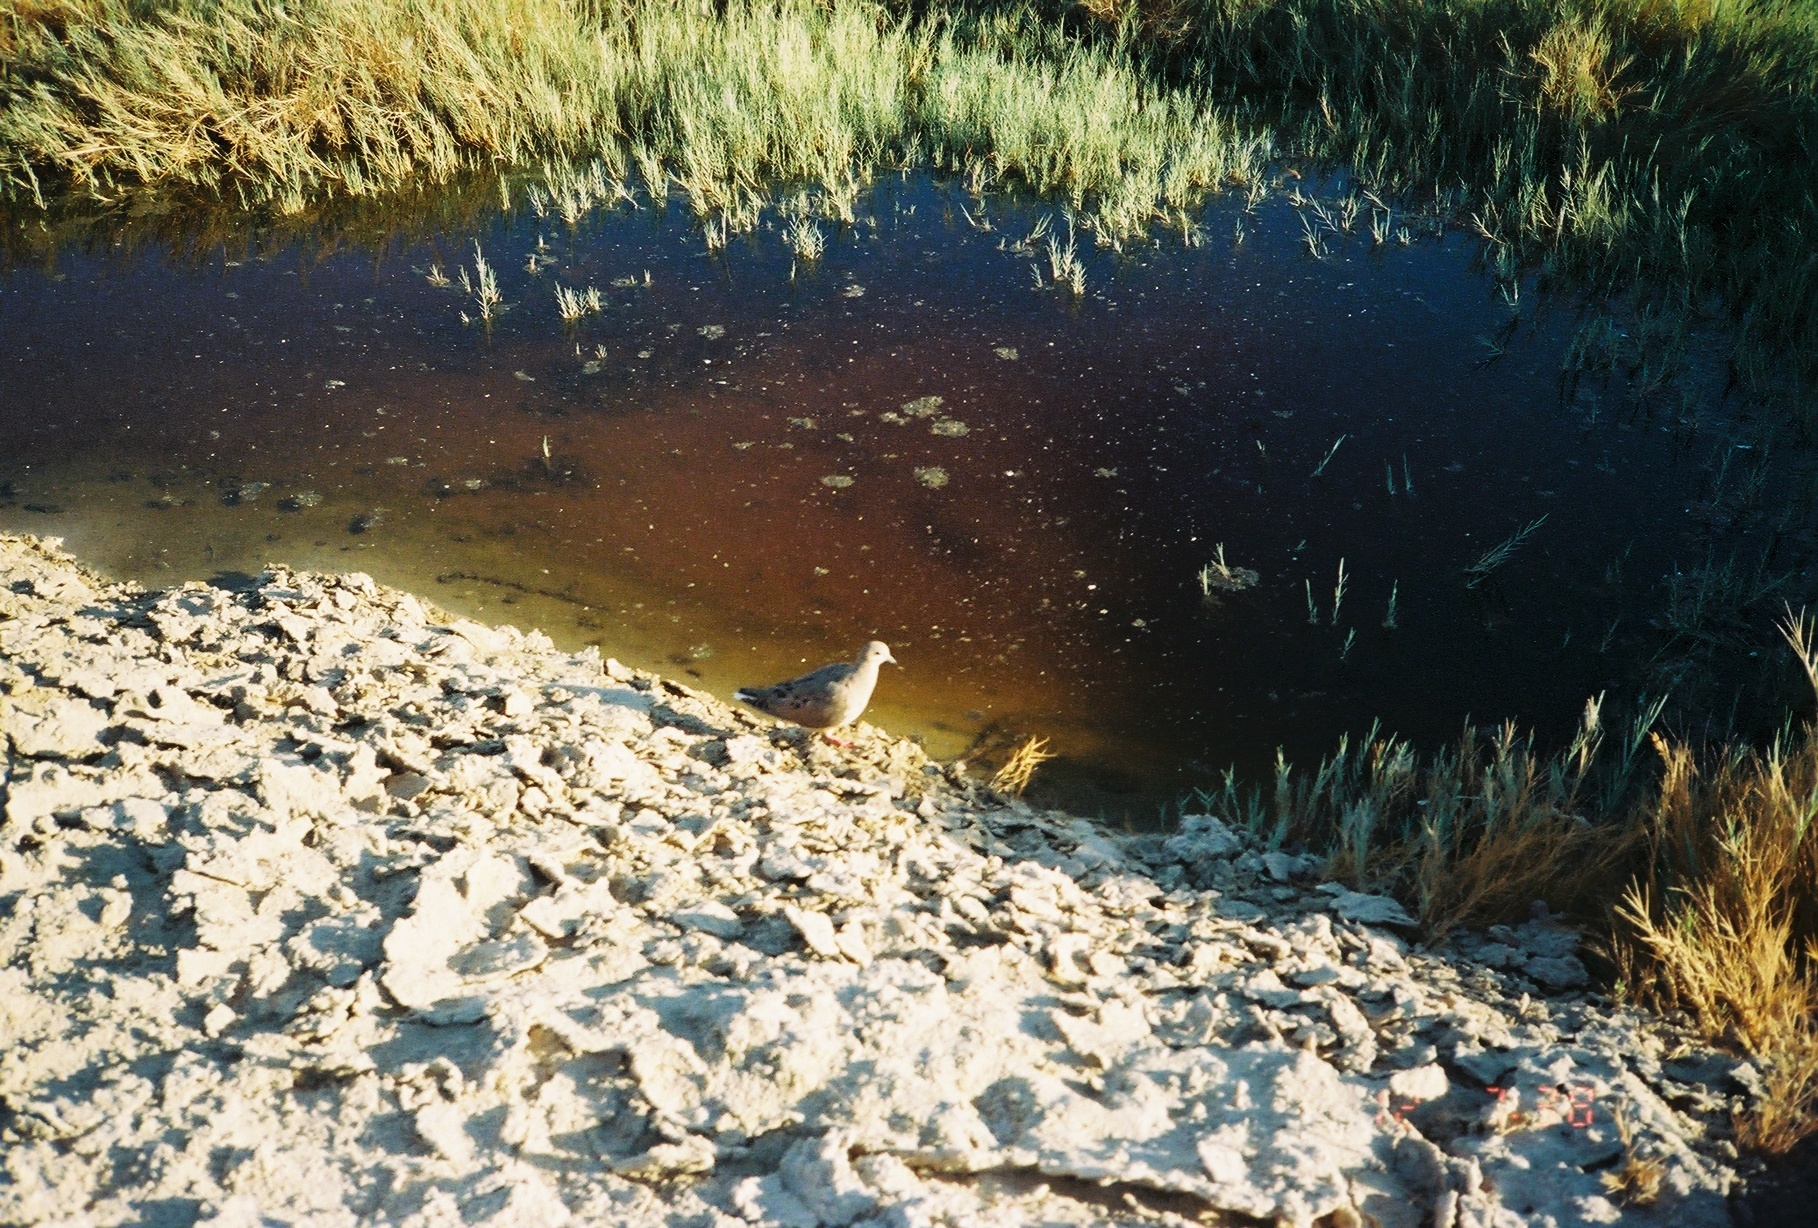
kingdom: Animalia
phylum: Chordata
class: Aves
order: Columbiformes
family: Columbidae
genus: Zenaida
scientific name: Zenaida macroura
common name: Mourning dove
